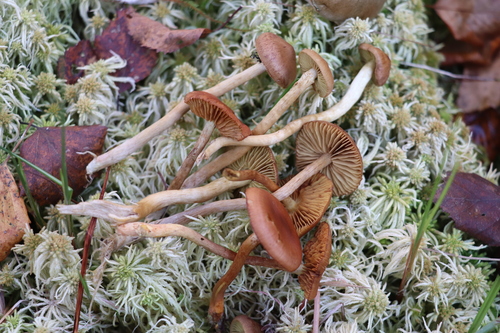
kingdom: Fungi
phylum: Basidiomycota
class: Agaricomycetes
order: Agaricales
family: Cortinariaceae
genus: Cortinarius
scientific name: Cortinarius tubarius
